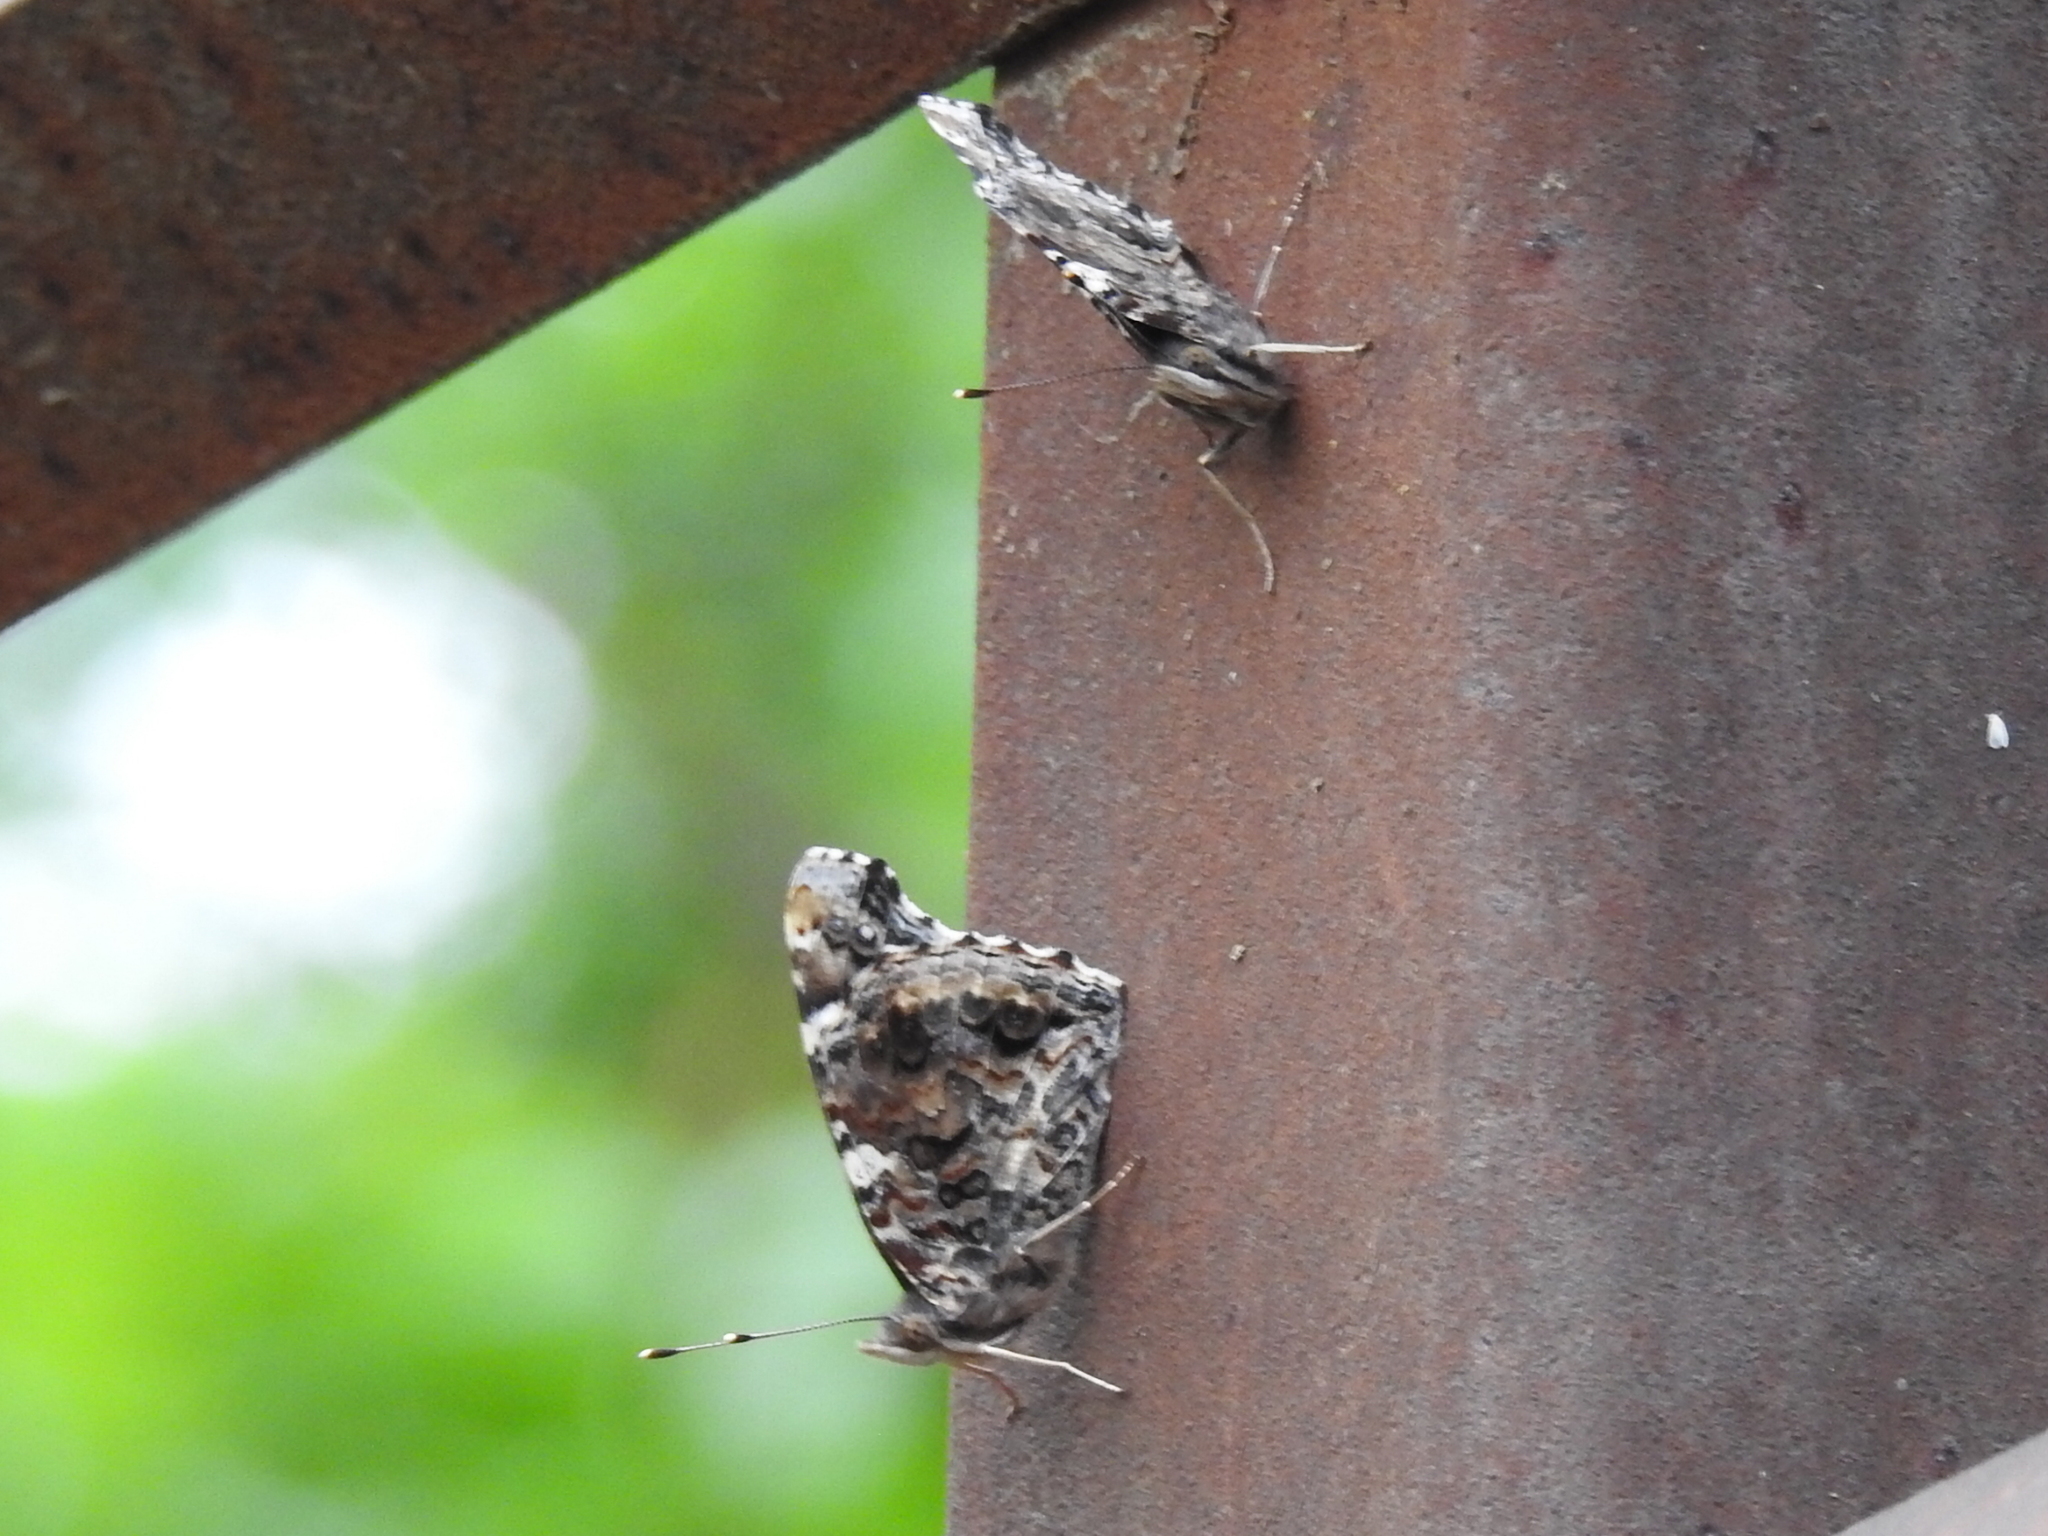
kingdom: Animalia
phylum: Arthropoda
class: Insecta
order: Lepidoptera
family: Nymphalidae
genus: Vanessa
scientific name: Vanessa atalanta
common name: Red admiral
